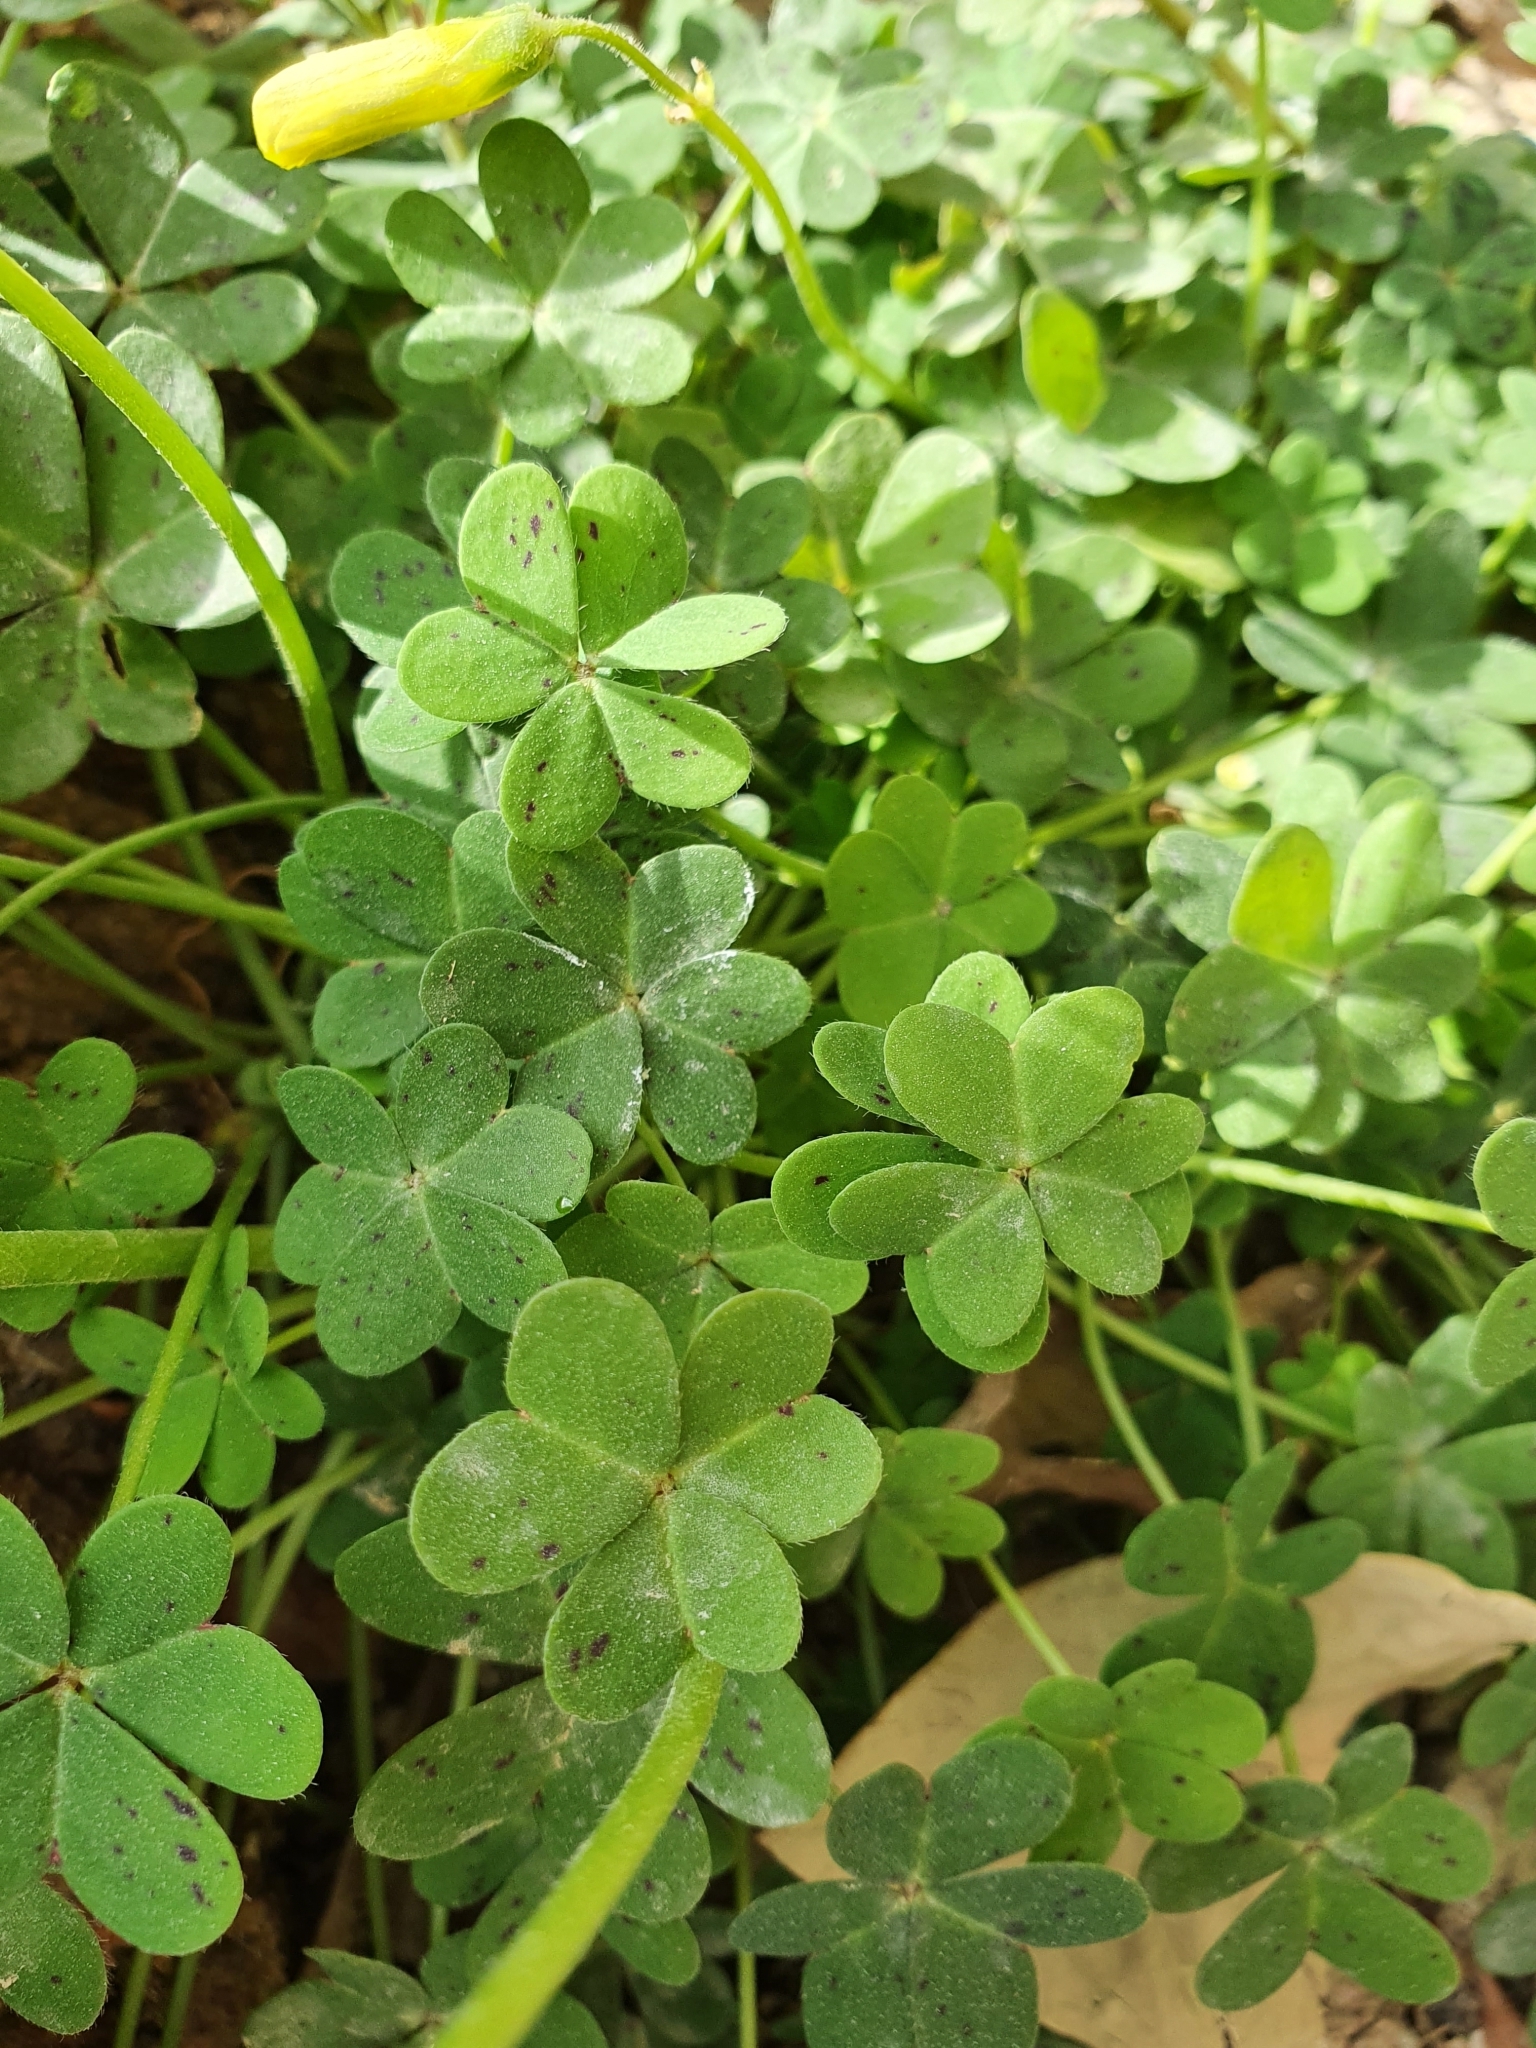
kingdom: Plantae
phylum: Tracheophyta
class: Magnoliopsida
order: Oxalidales
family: Oxalidaceae
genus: Oxalis
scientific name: Oxalis pes-caprae
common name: Bermuda-buttercup
